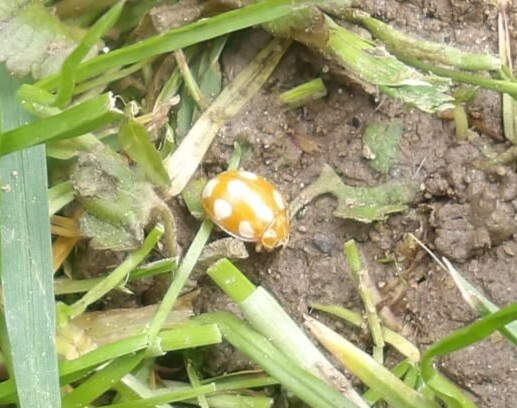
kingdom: Animalia
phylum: Arthropoda
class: Insecta
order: Coleoptera
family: Coccinellidae
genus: Calvia
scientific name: Calvia decemguttata
